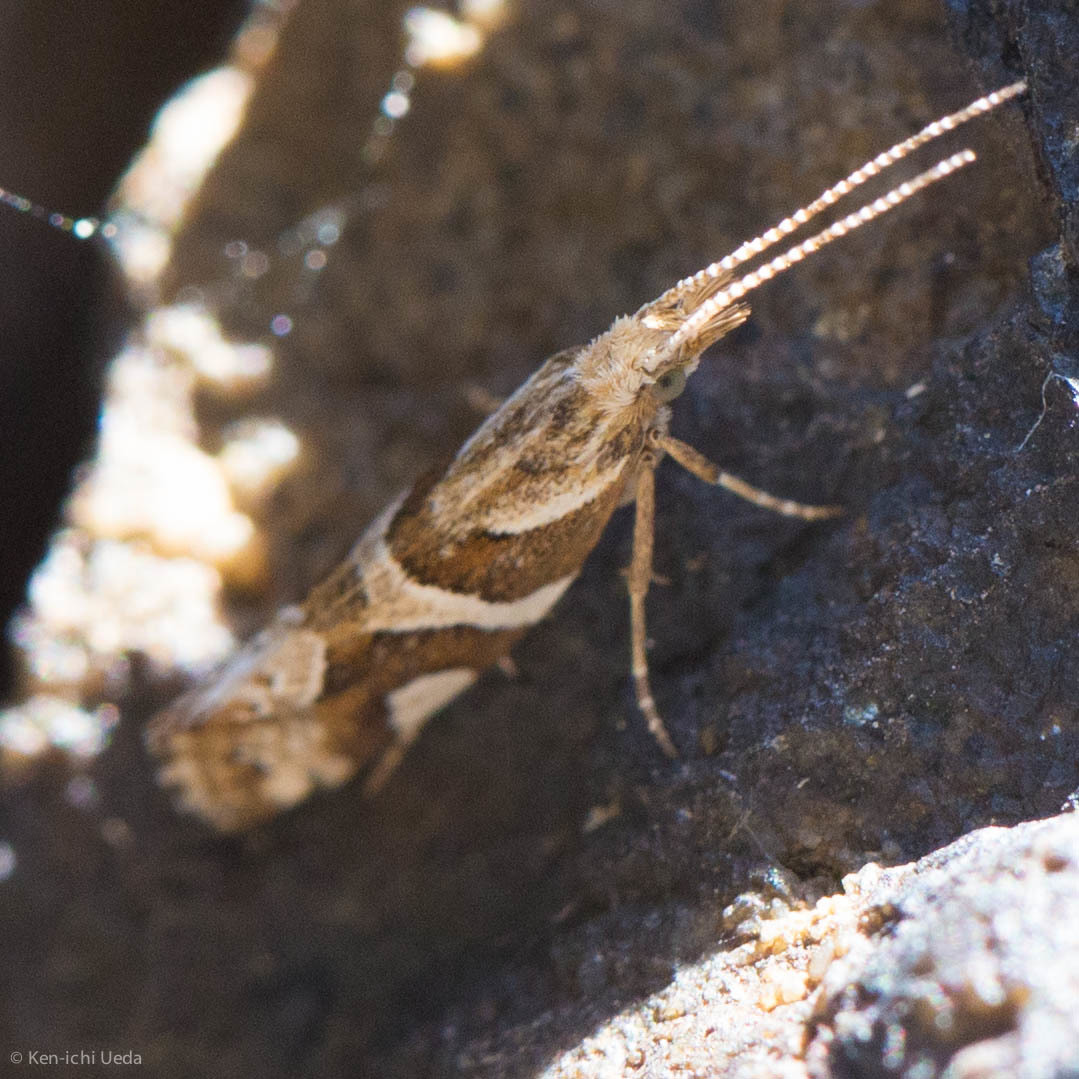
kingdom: Animalia
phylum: Arthropoda
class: Insecta
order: Lepidoptera
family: Plutellidae
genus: Eidophasia
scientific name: Eidophasia vanella
